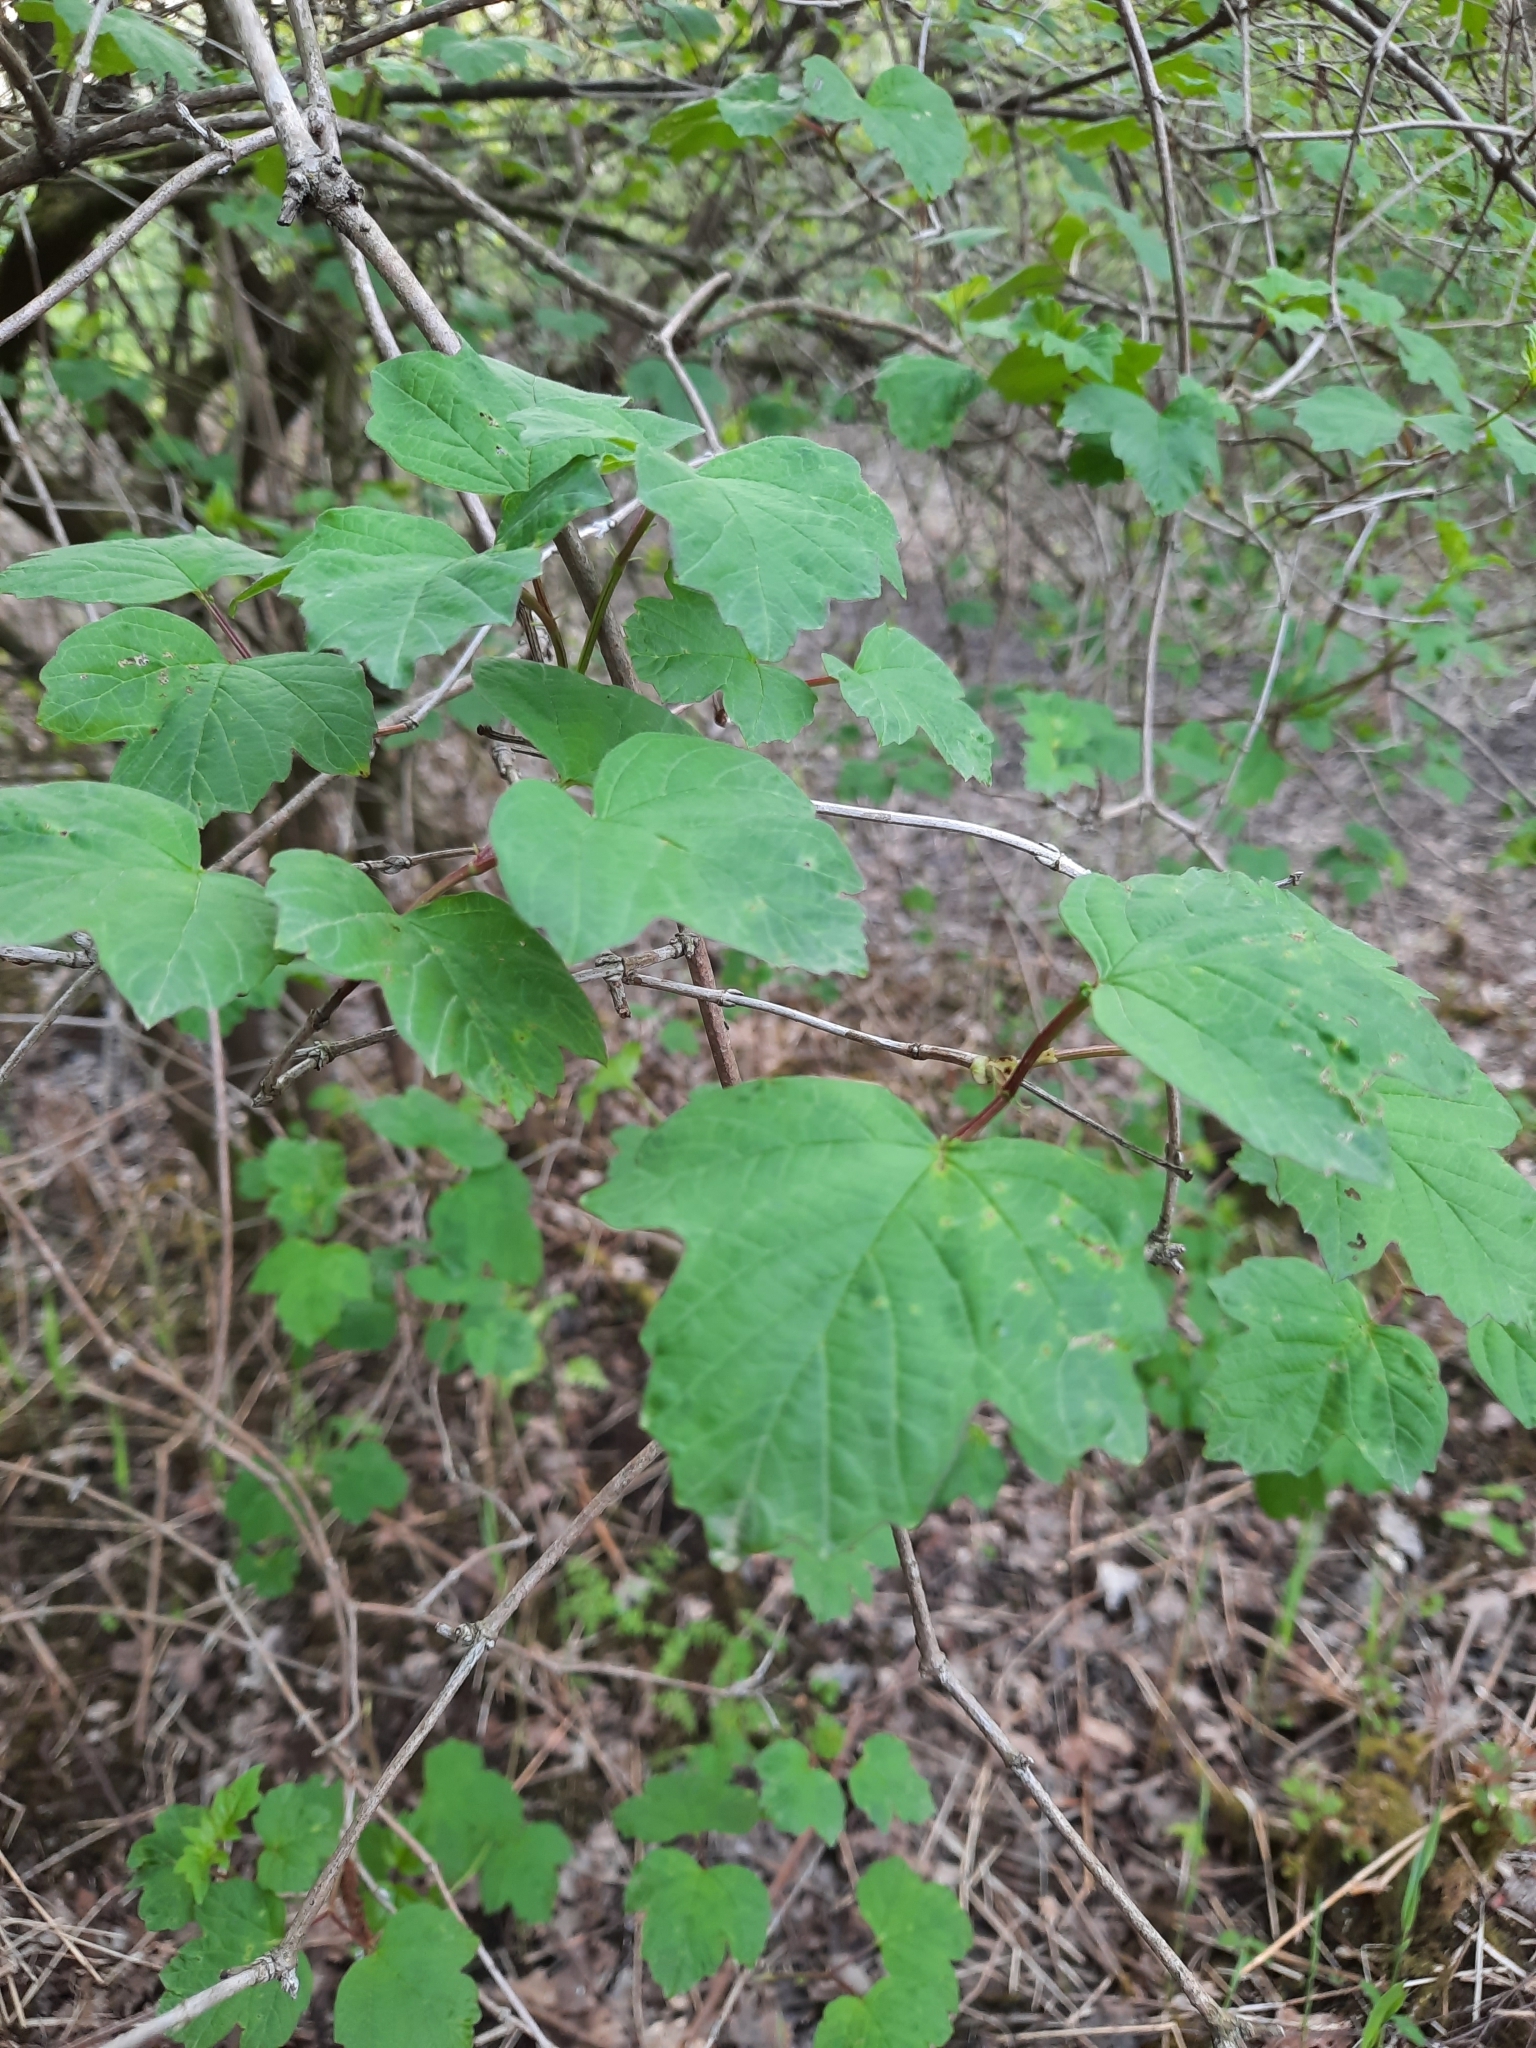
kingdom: Plantae
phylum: Tracheophyta
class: Magnoliopsida
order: Dipsacales
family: Viburnaceae
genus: Viburnum
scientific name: Viburnum opulus
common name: Guelder-rose
